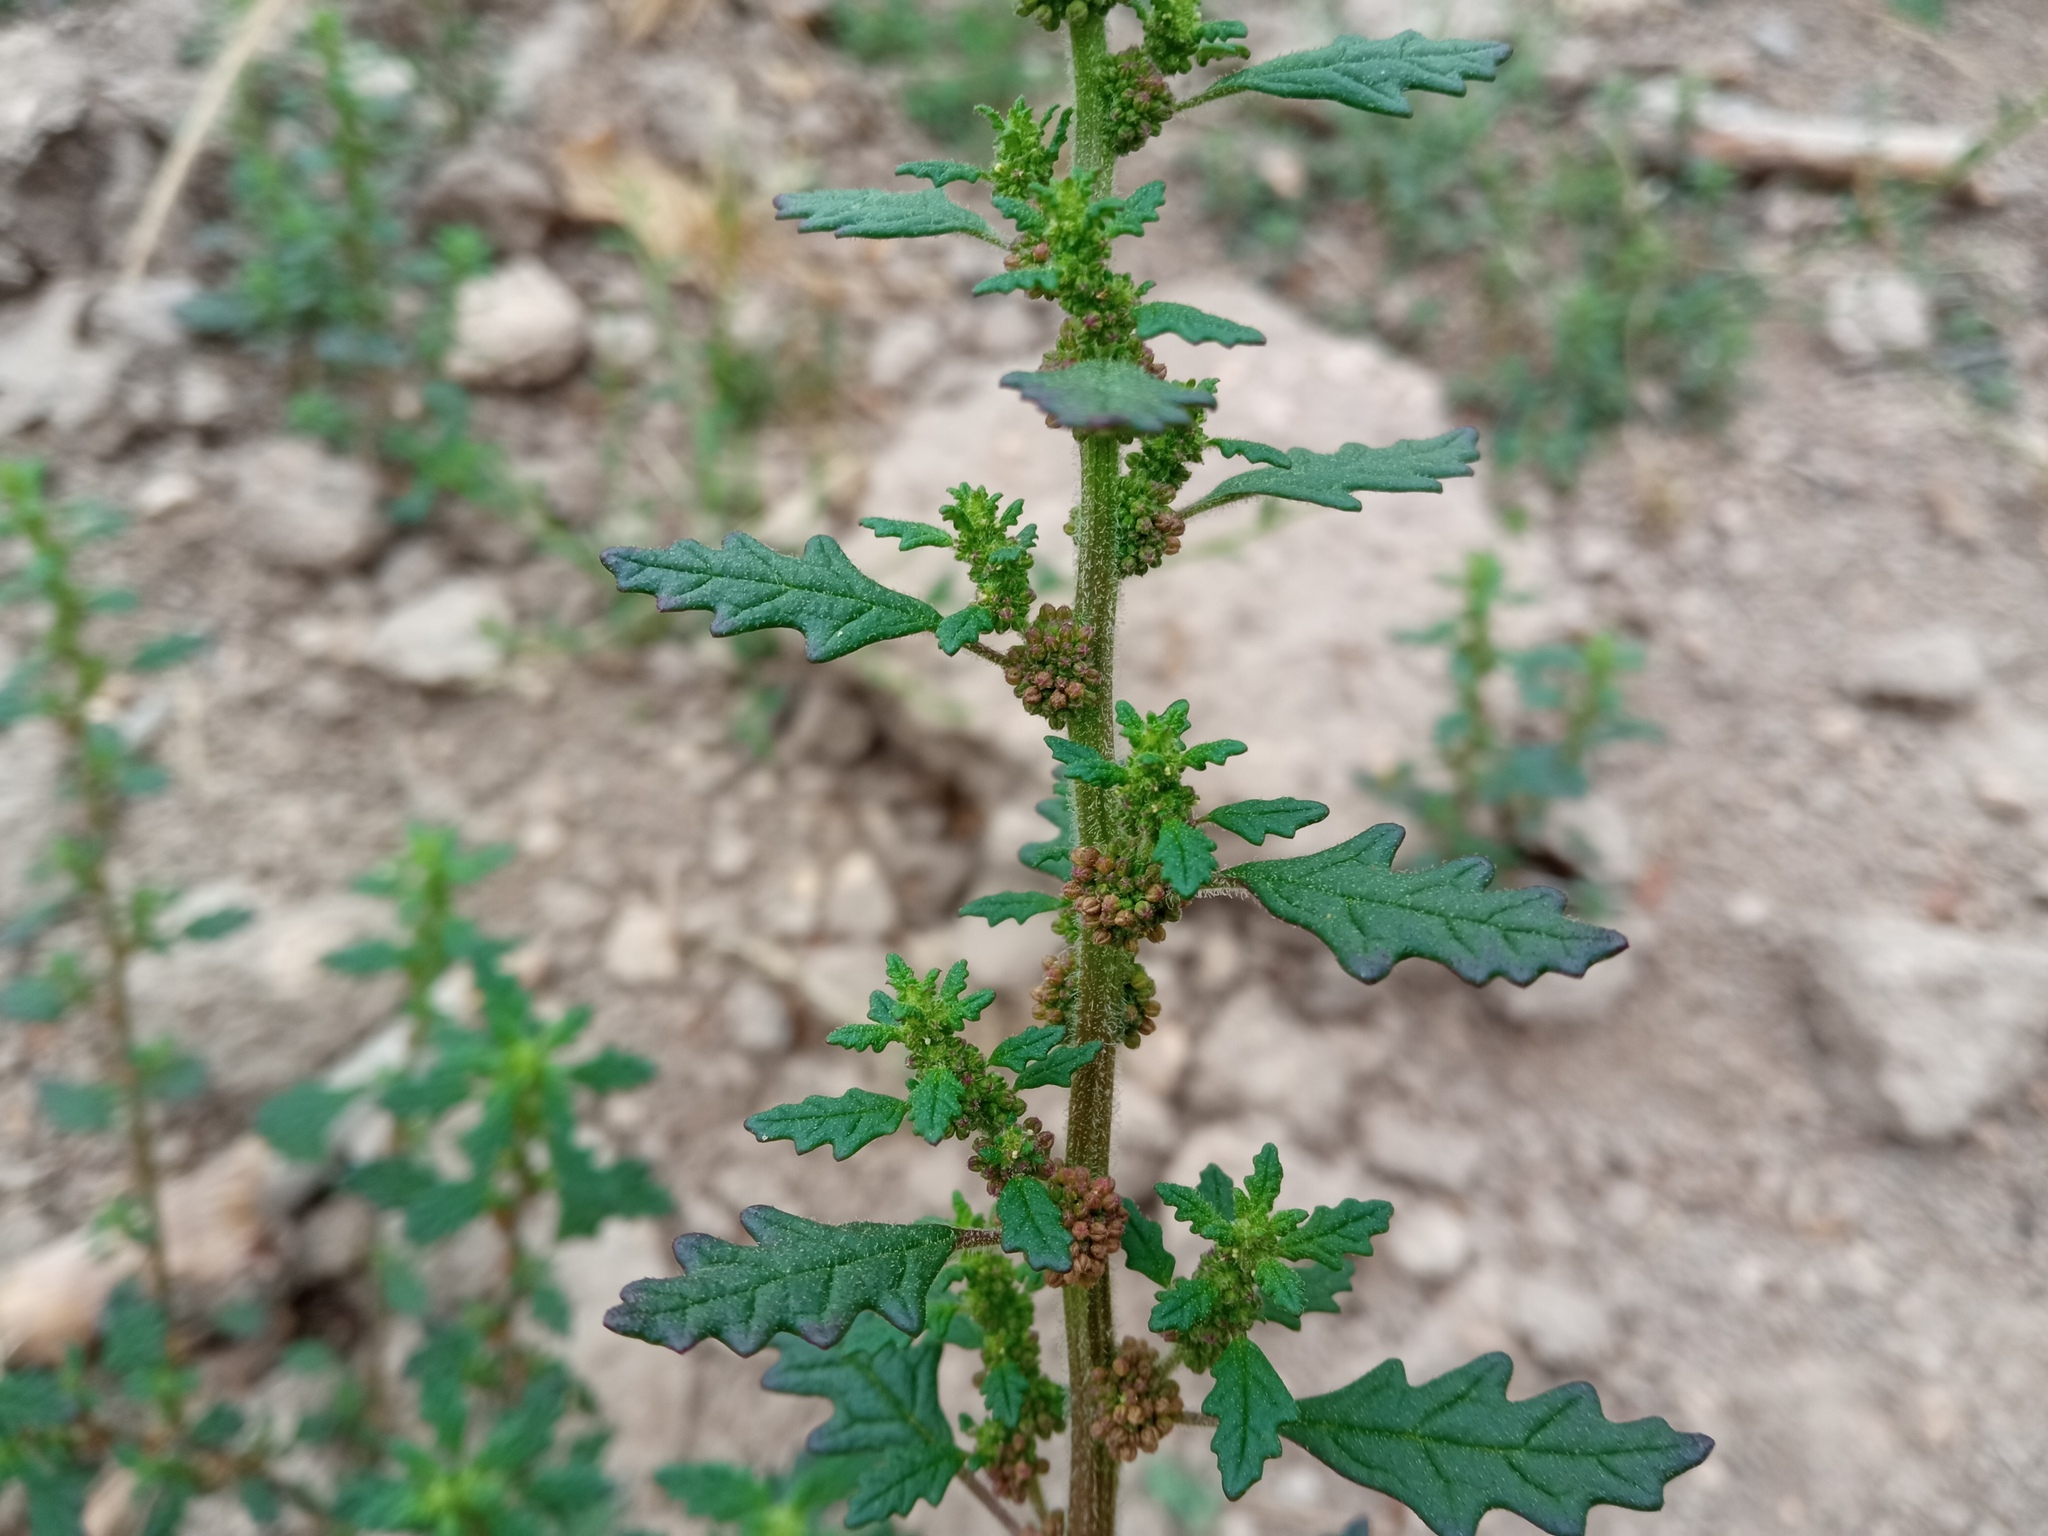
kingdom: Plantae
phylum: Tracheophyta
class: Magnoliopsida
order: Caryophyllales
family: Amaranthaceae
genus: Dysphania
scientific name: Dysphania pumilio
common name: Clammy goosefoot
